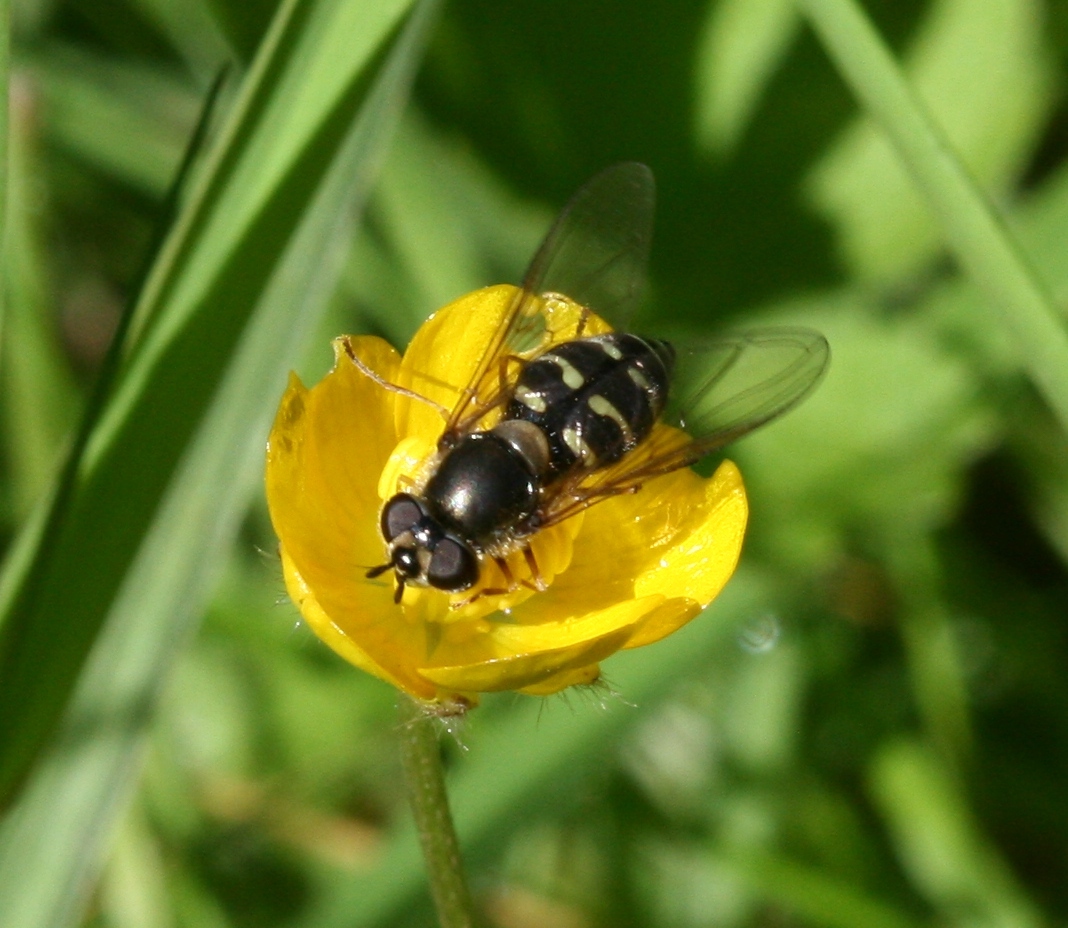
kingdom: Animalia
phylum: Arthropoda
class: Insecta
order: Diptera
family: Syrphidae
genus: Dasysyrphus
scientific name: Dasysyrphus
